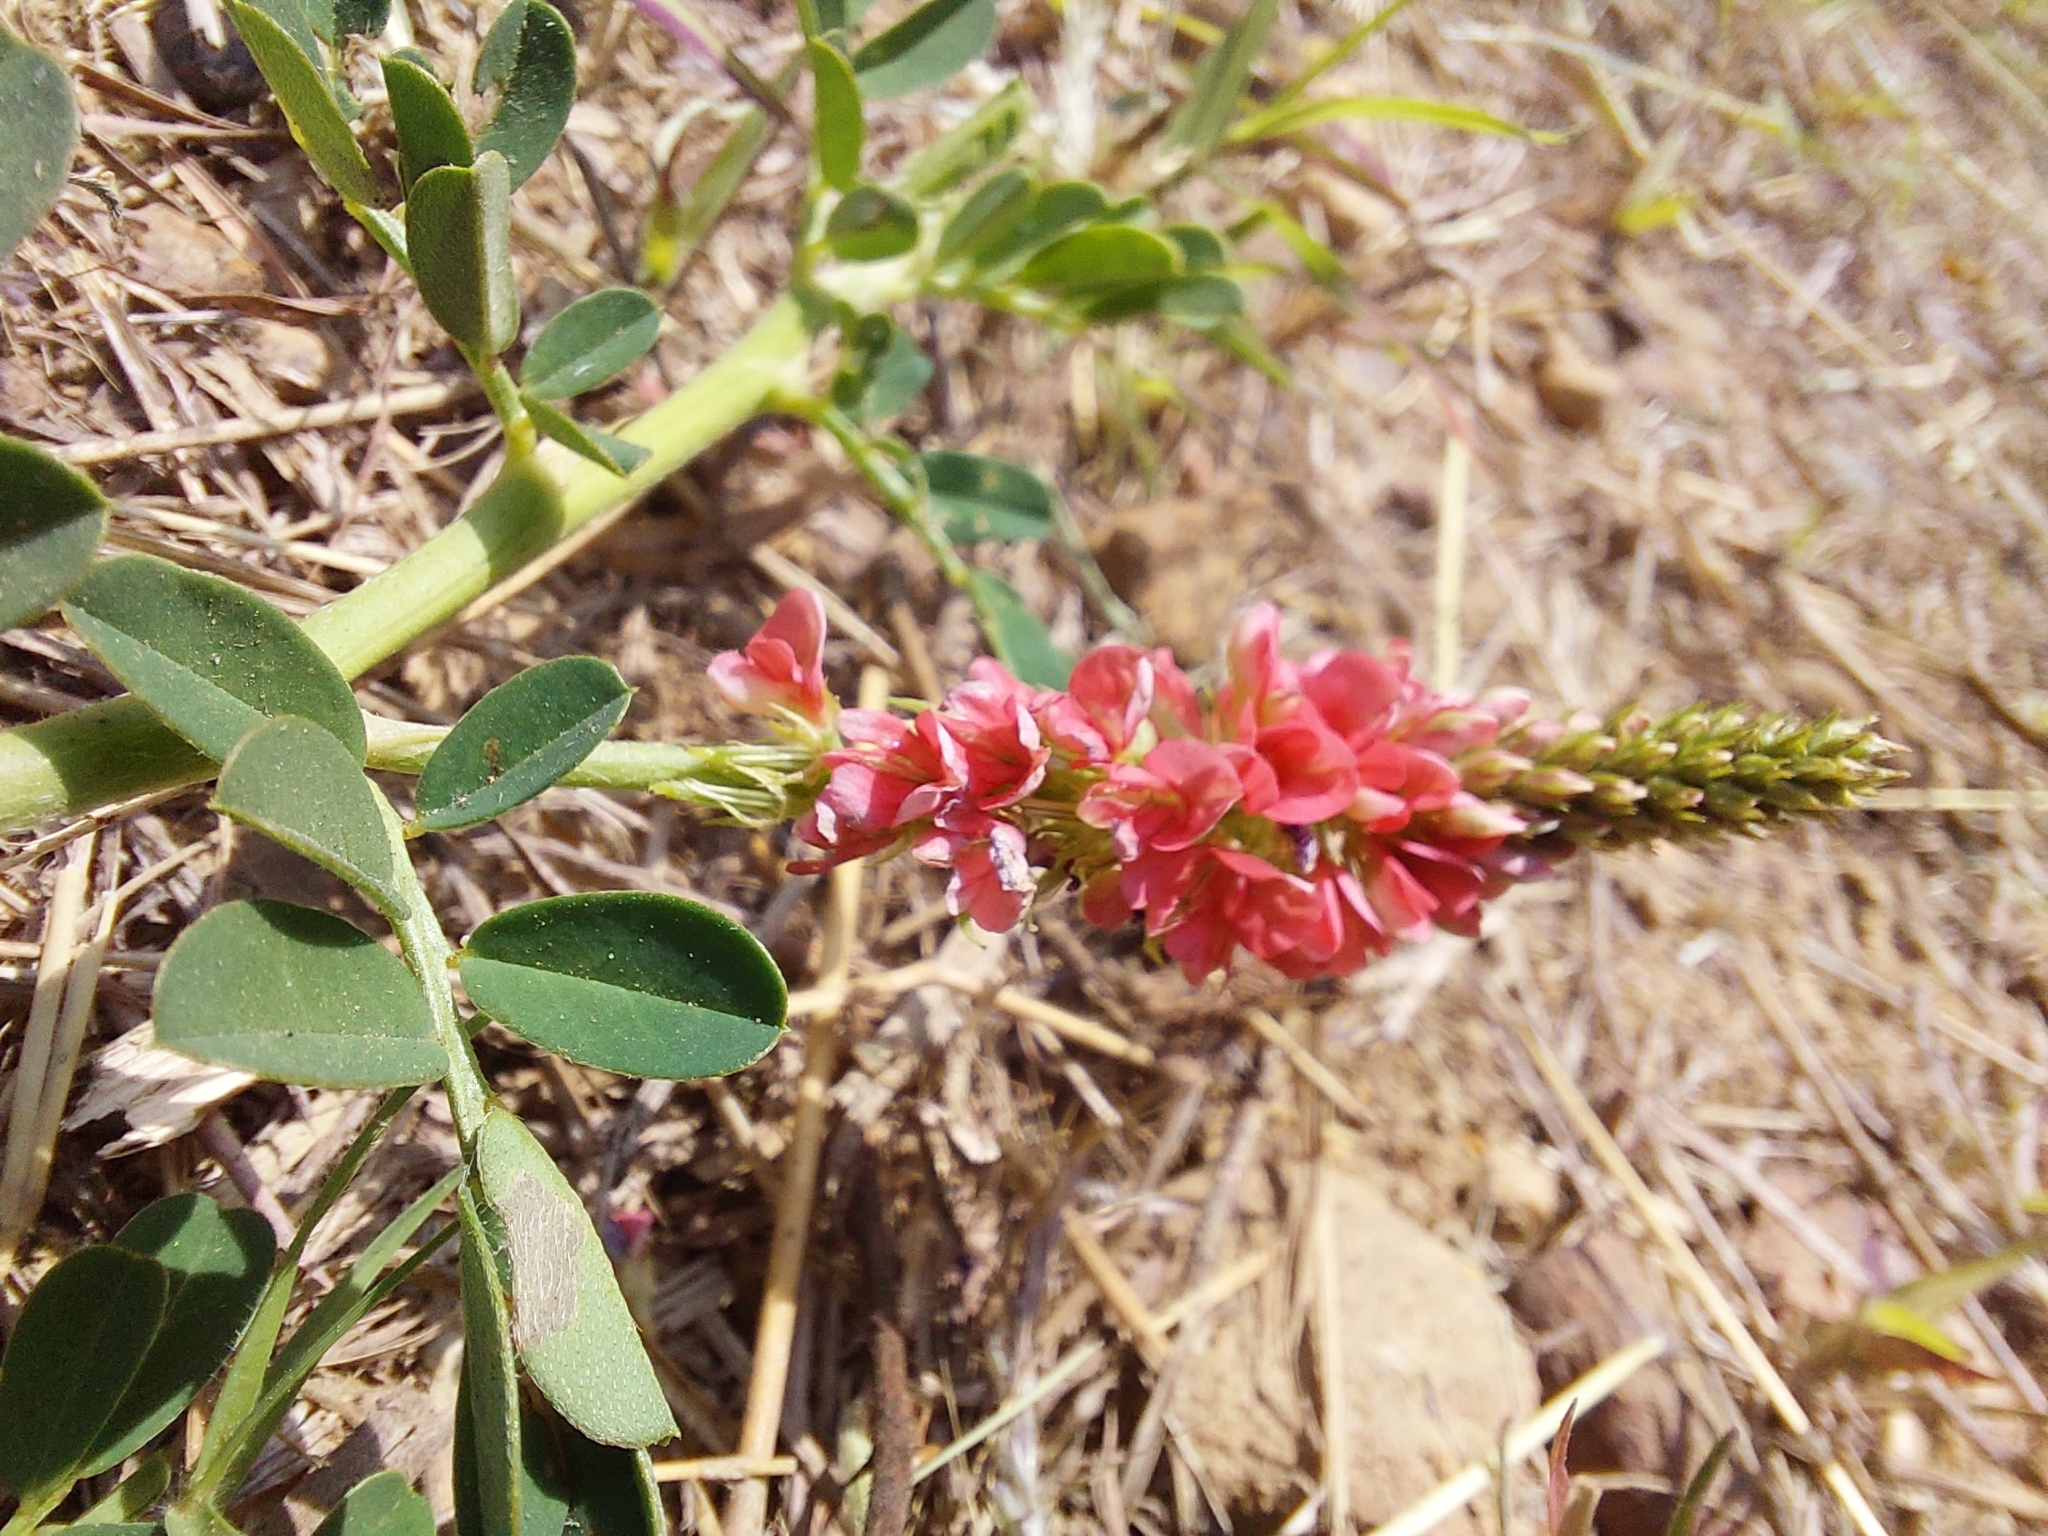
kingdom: Plantae
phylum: Tracheophyta
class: Magnoliopsida
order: Fabales
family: Fabaceae
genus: Indigofera
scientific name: Indigofera spicata
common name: Creeping indigo
